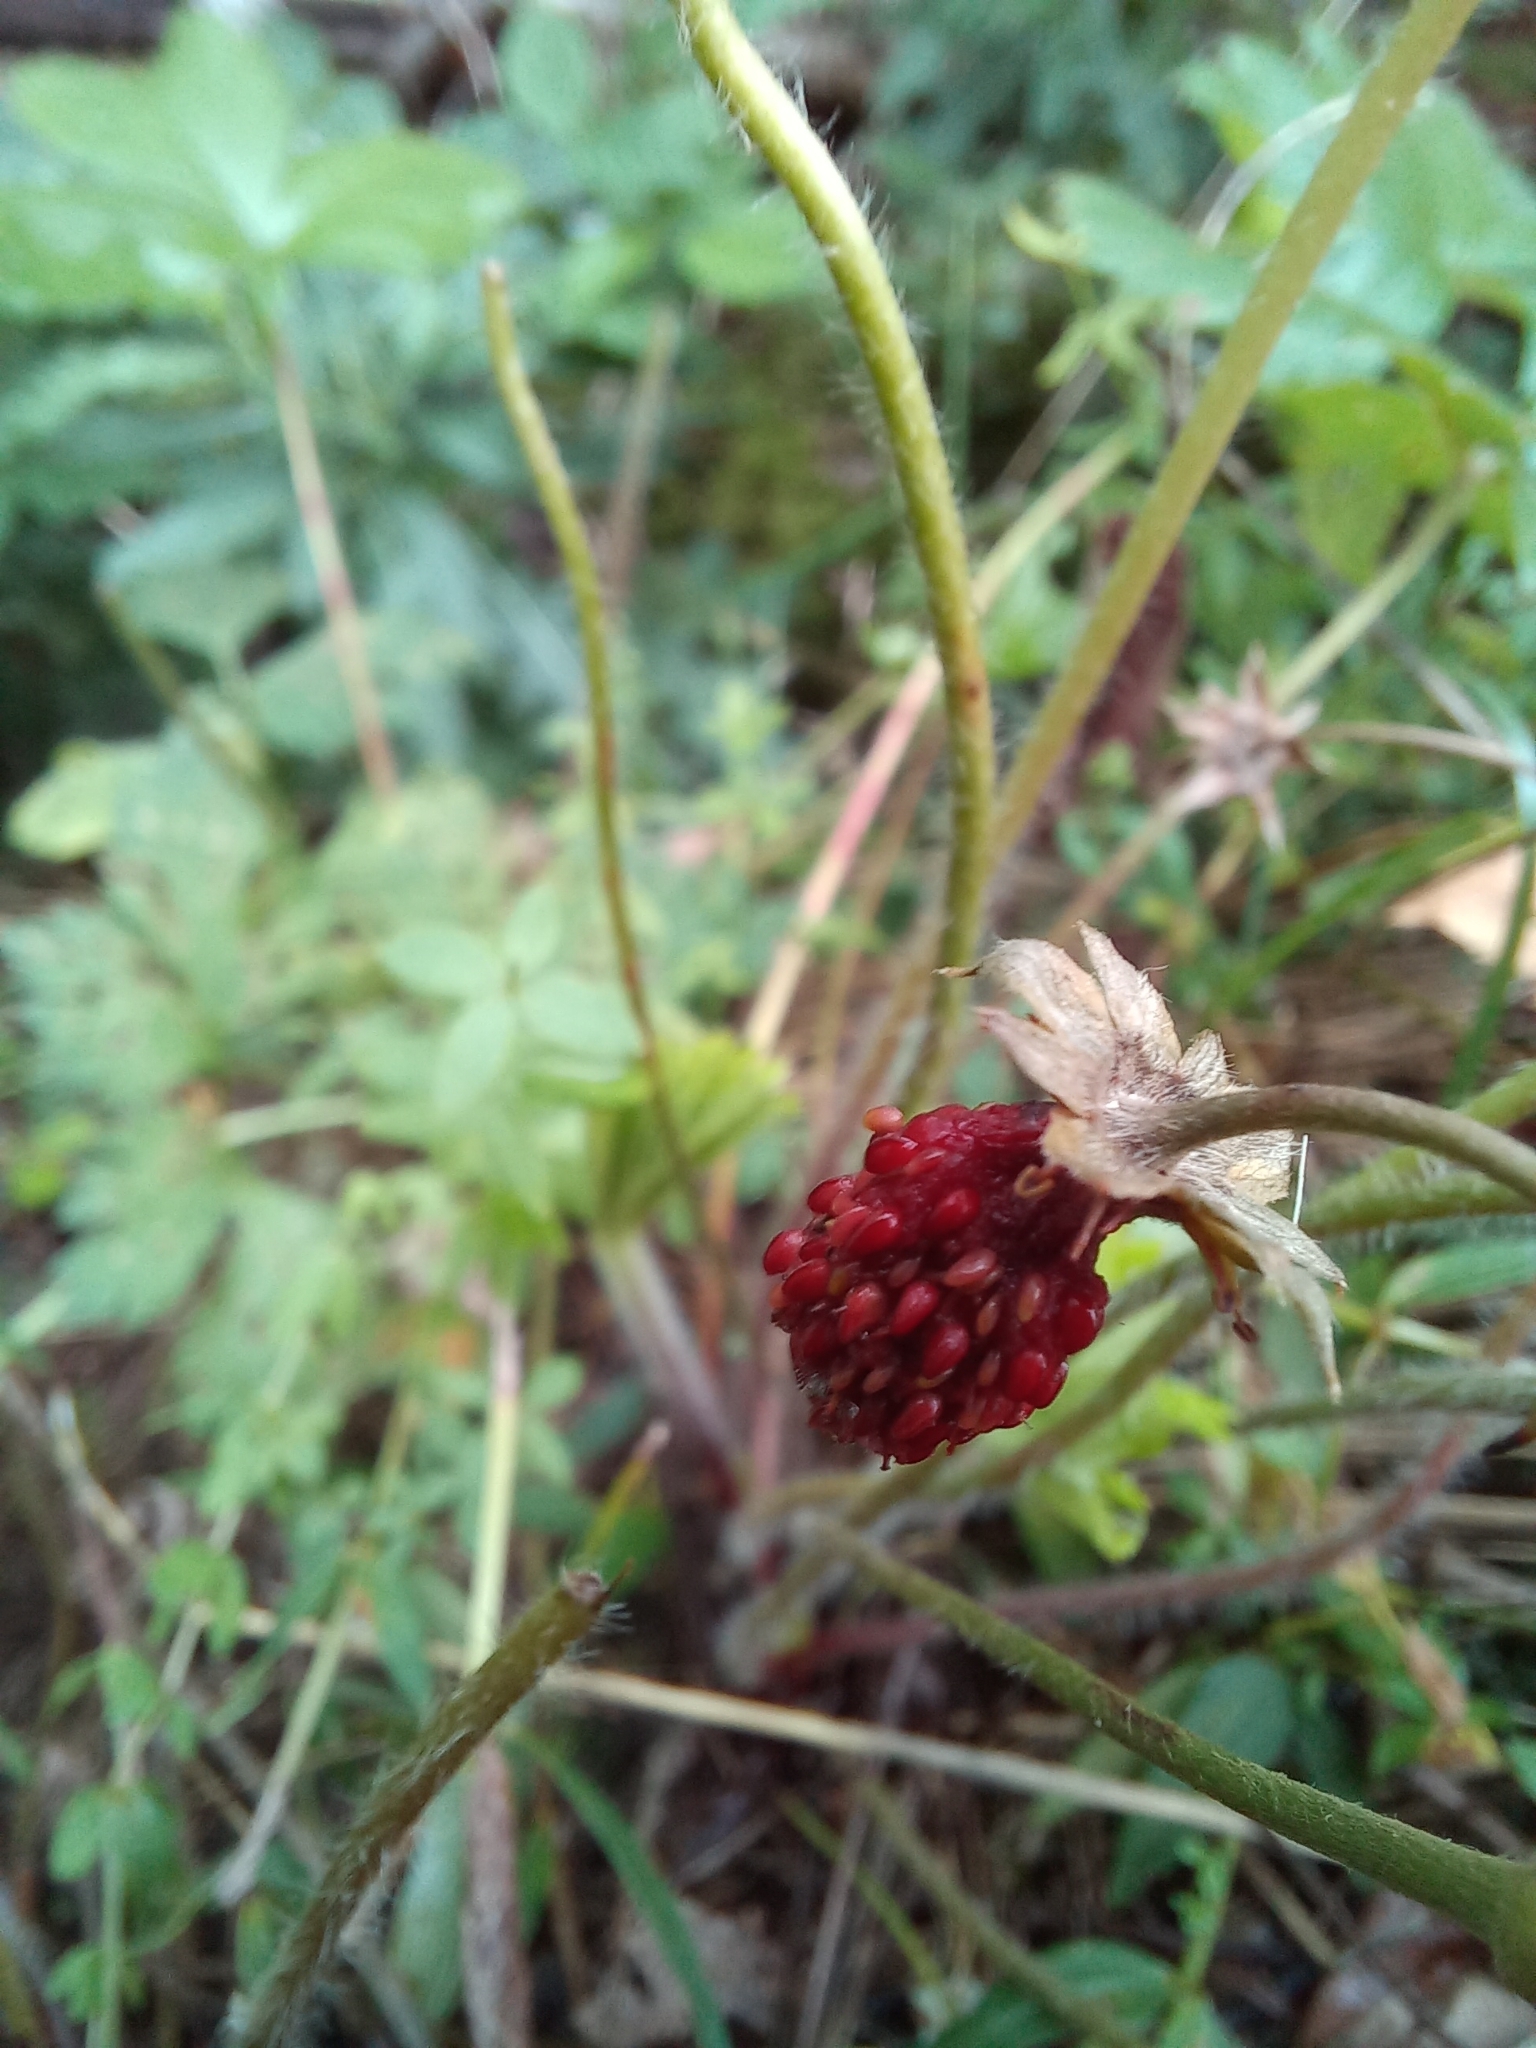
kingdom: Plantae
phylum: Tracheophyta
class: Magnoliopsida
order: Rosales
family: Rosaceae
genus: Fragaria
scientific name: Fragaria vesca
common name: Wild strawberry
